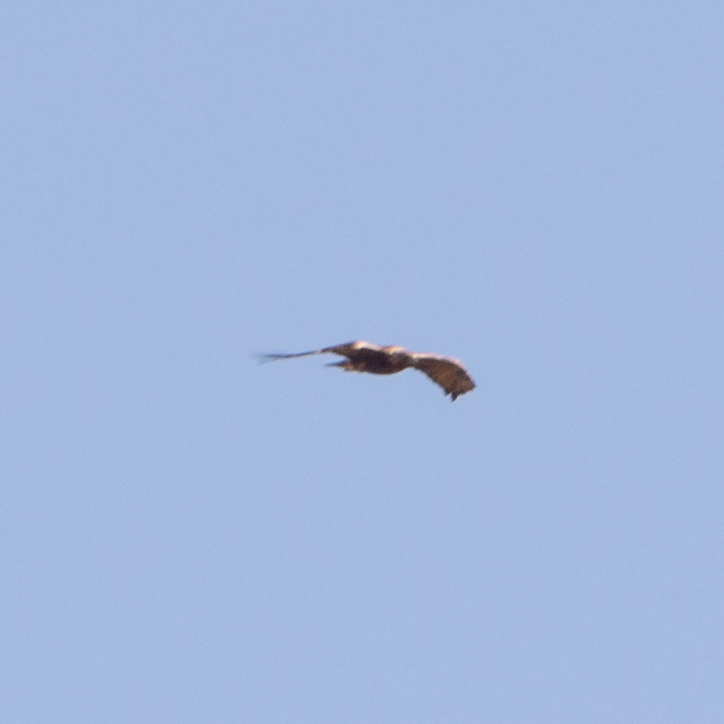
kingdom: Animalia
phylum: Chordata
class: Aves
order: Accipitriformes
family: Accipitridae
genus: Aquila
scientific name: Aquila chrysaetos
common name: Golden eagle
